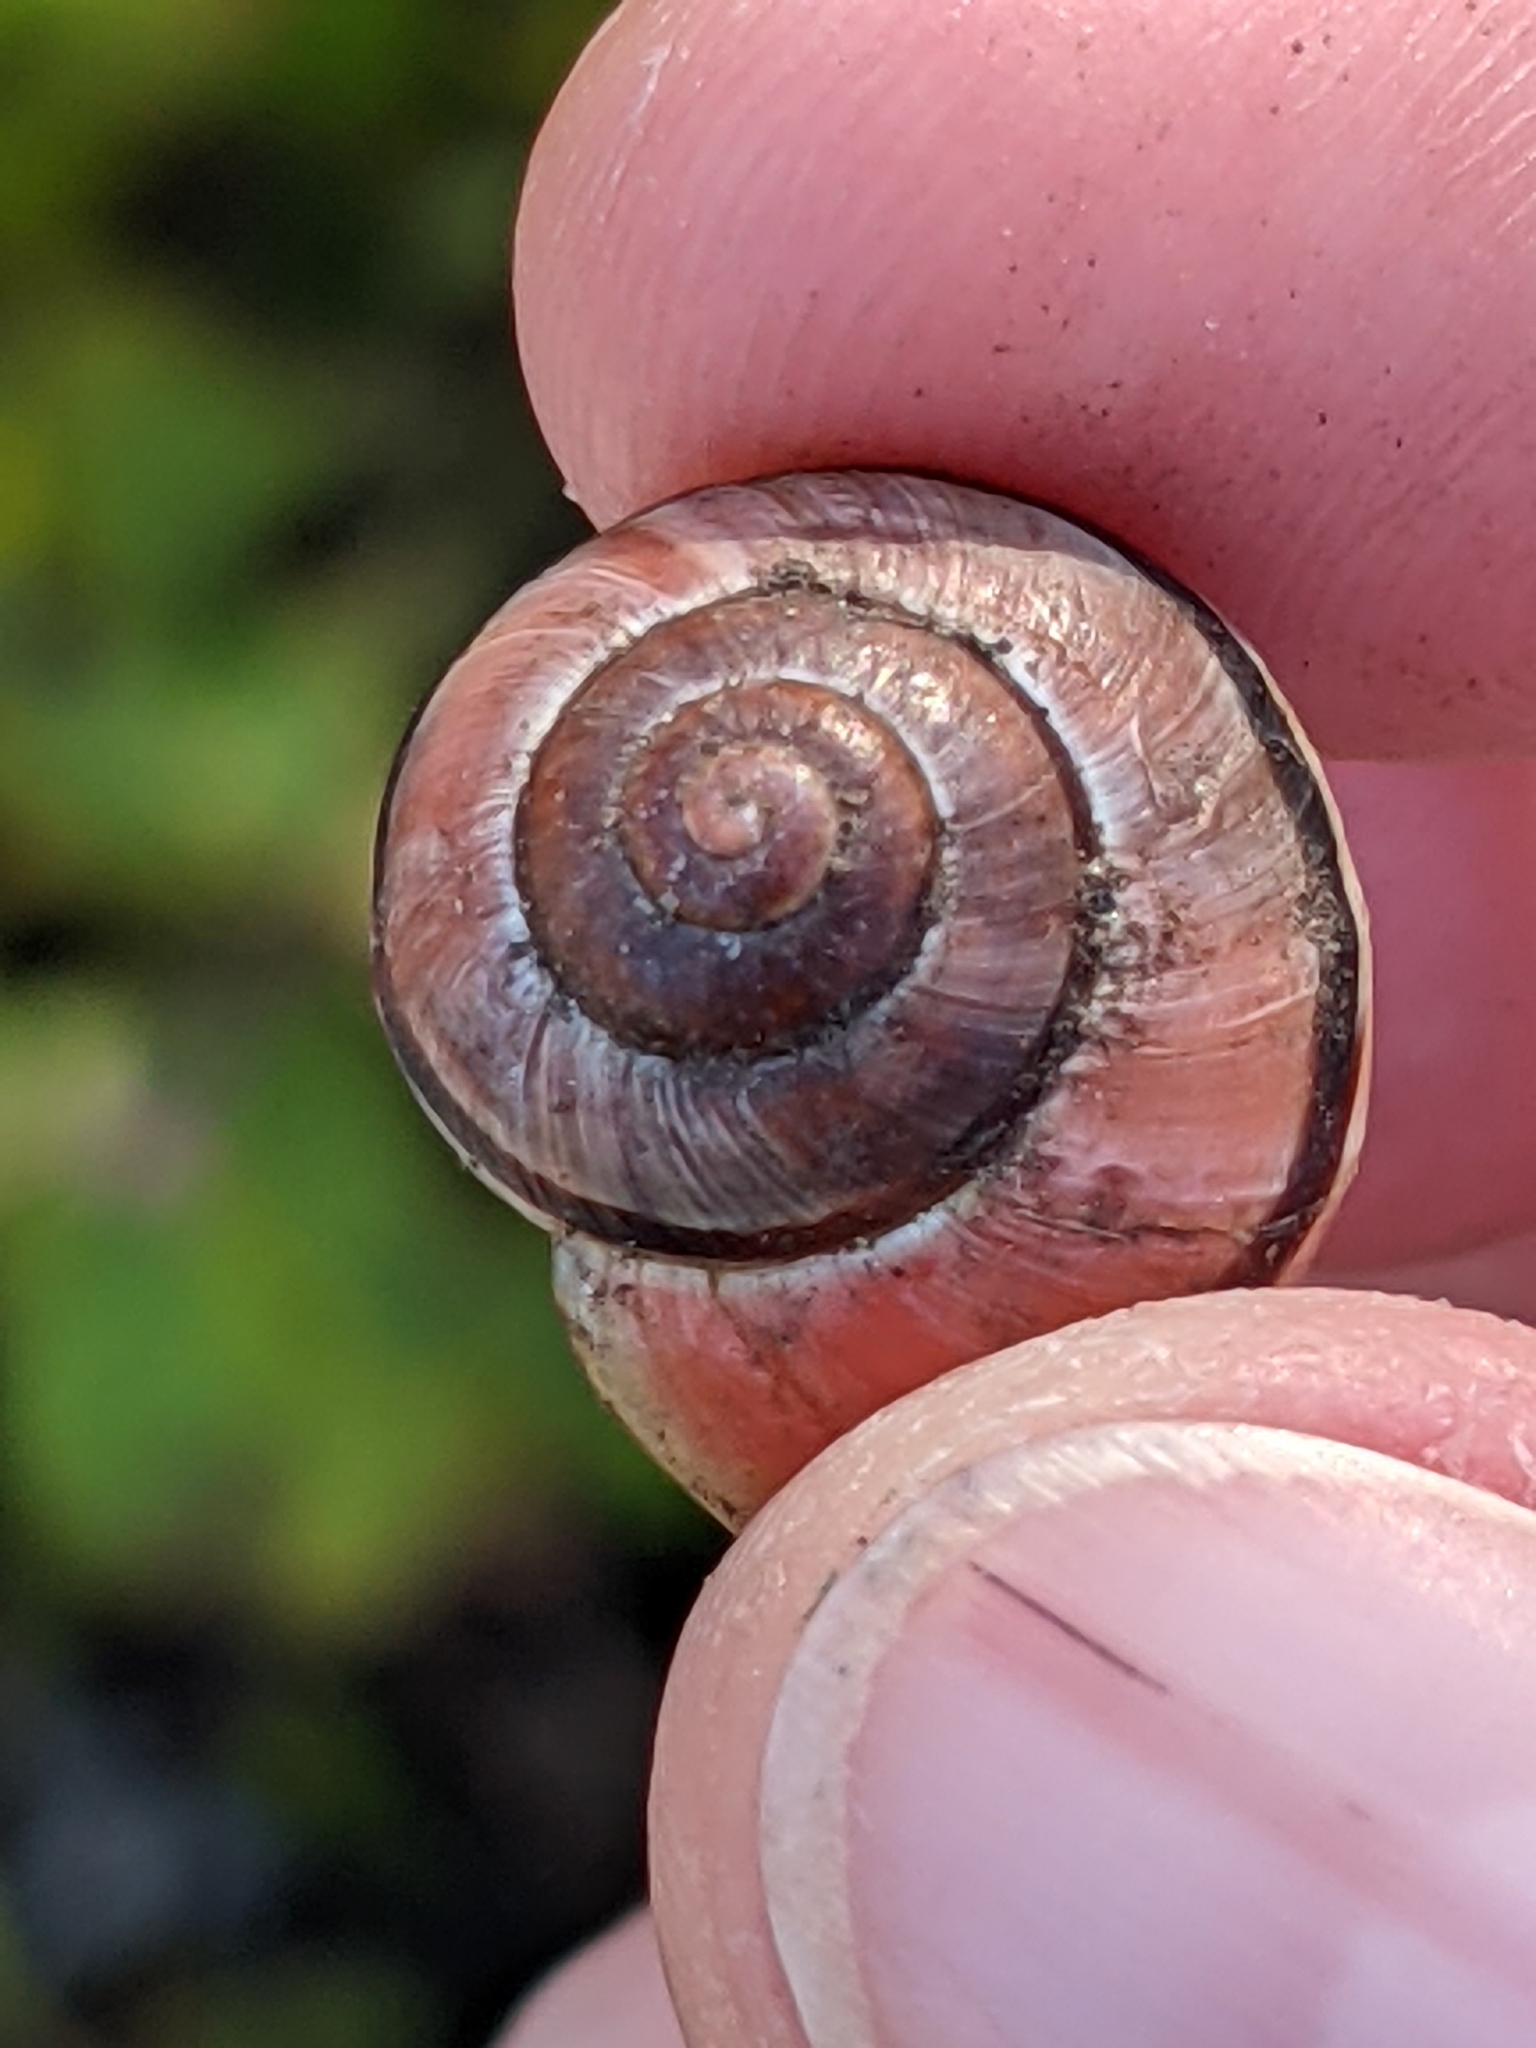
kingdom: Animalia
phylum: Mollusca
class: Gastropoda
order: Stylommatophora
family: Helicidae
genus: Cepaea
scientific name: Cepaea nemoralis
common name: Grovesnail
